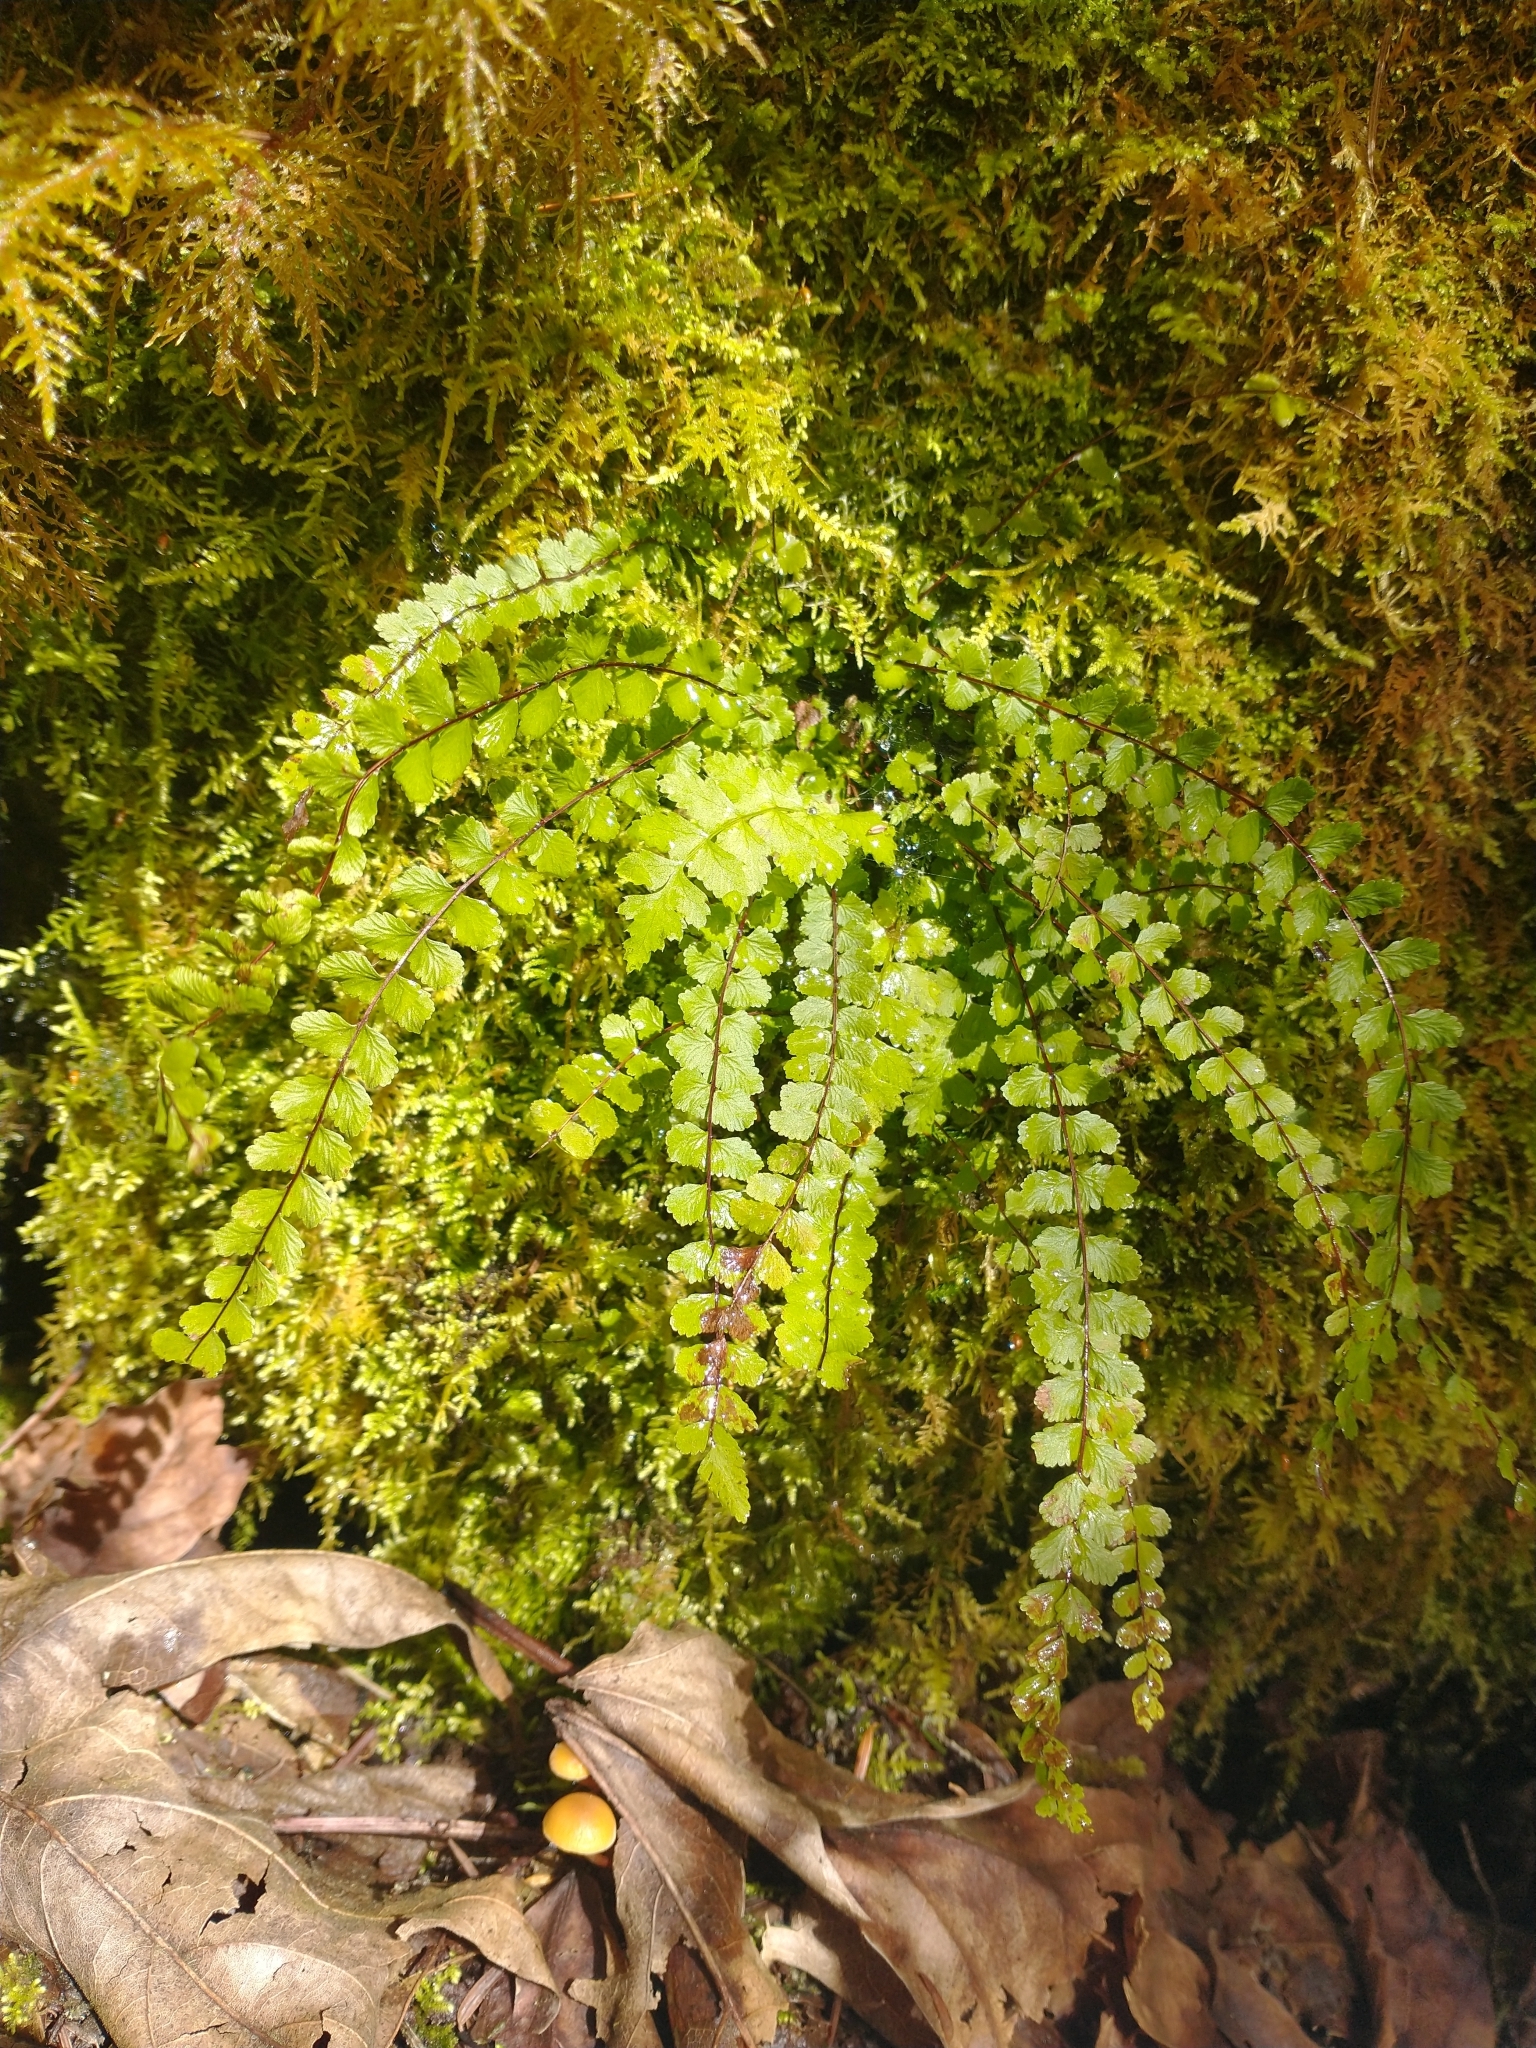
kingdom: Plantae
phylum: Tracheophyta
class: Polypodiopsida
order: Polypodiales
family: Aspleniaceae
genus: Asplenium
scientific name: Asplenium trichomanes
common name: Maidenhair spleenwort
